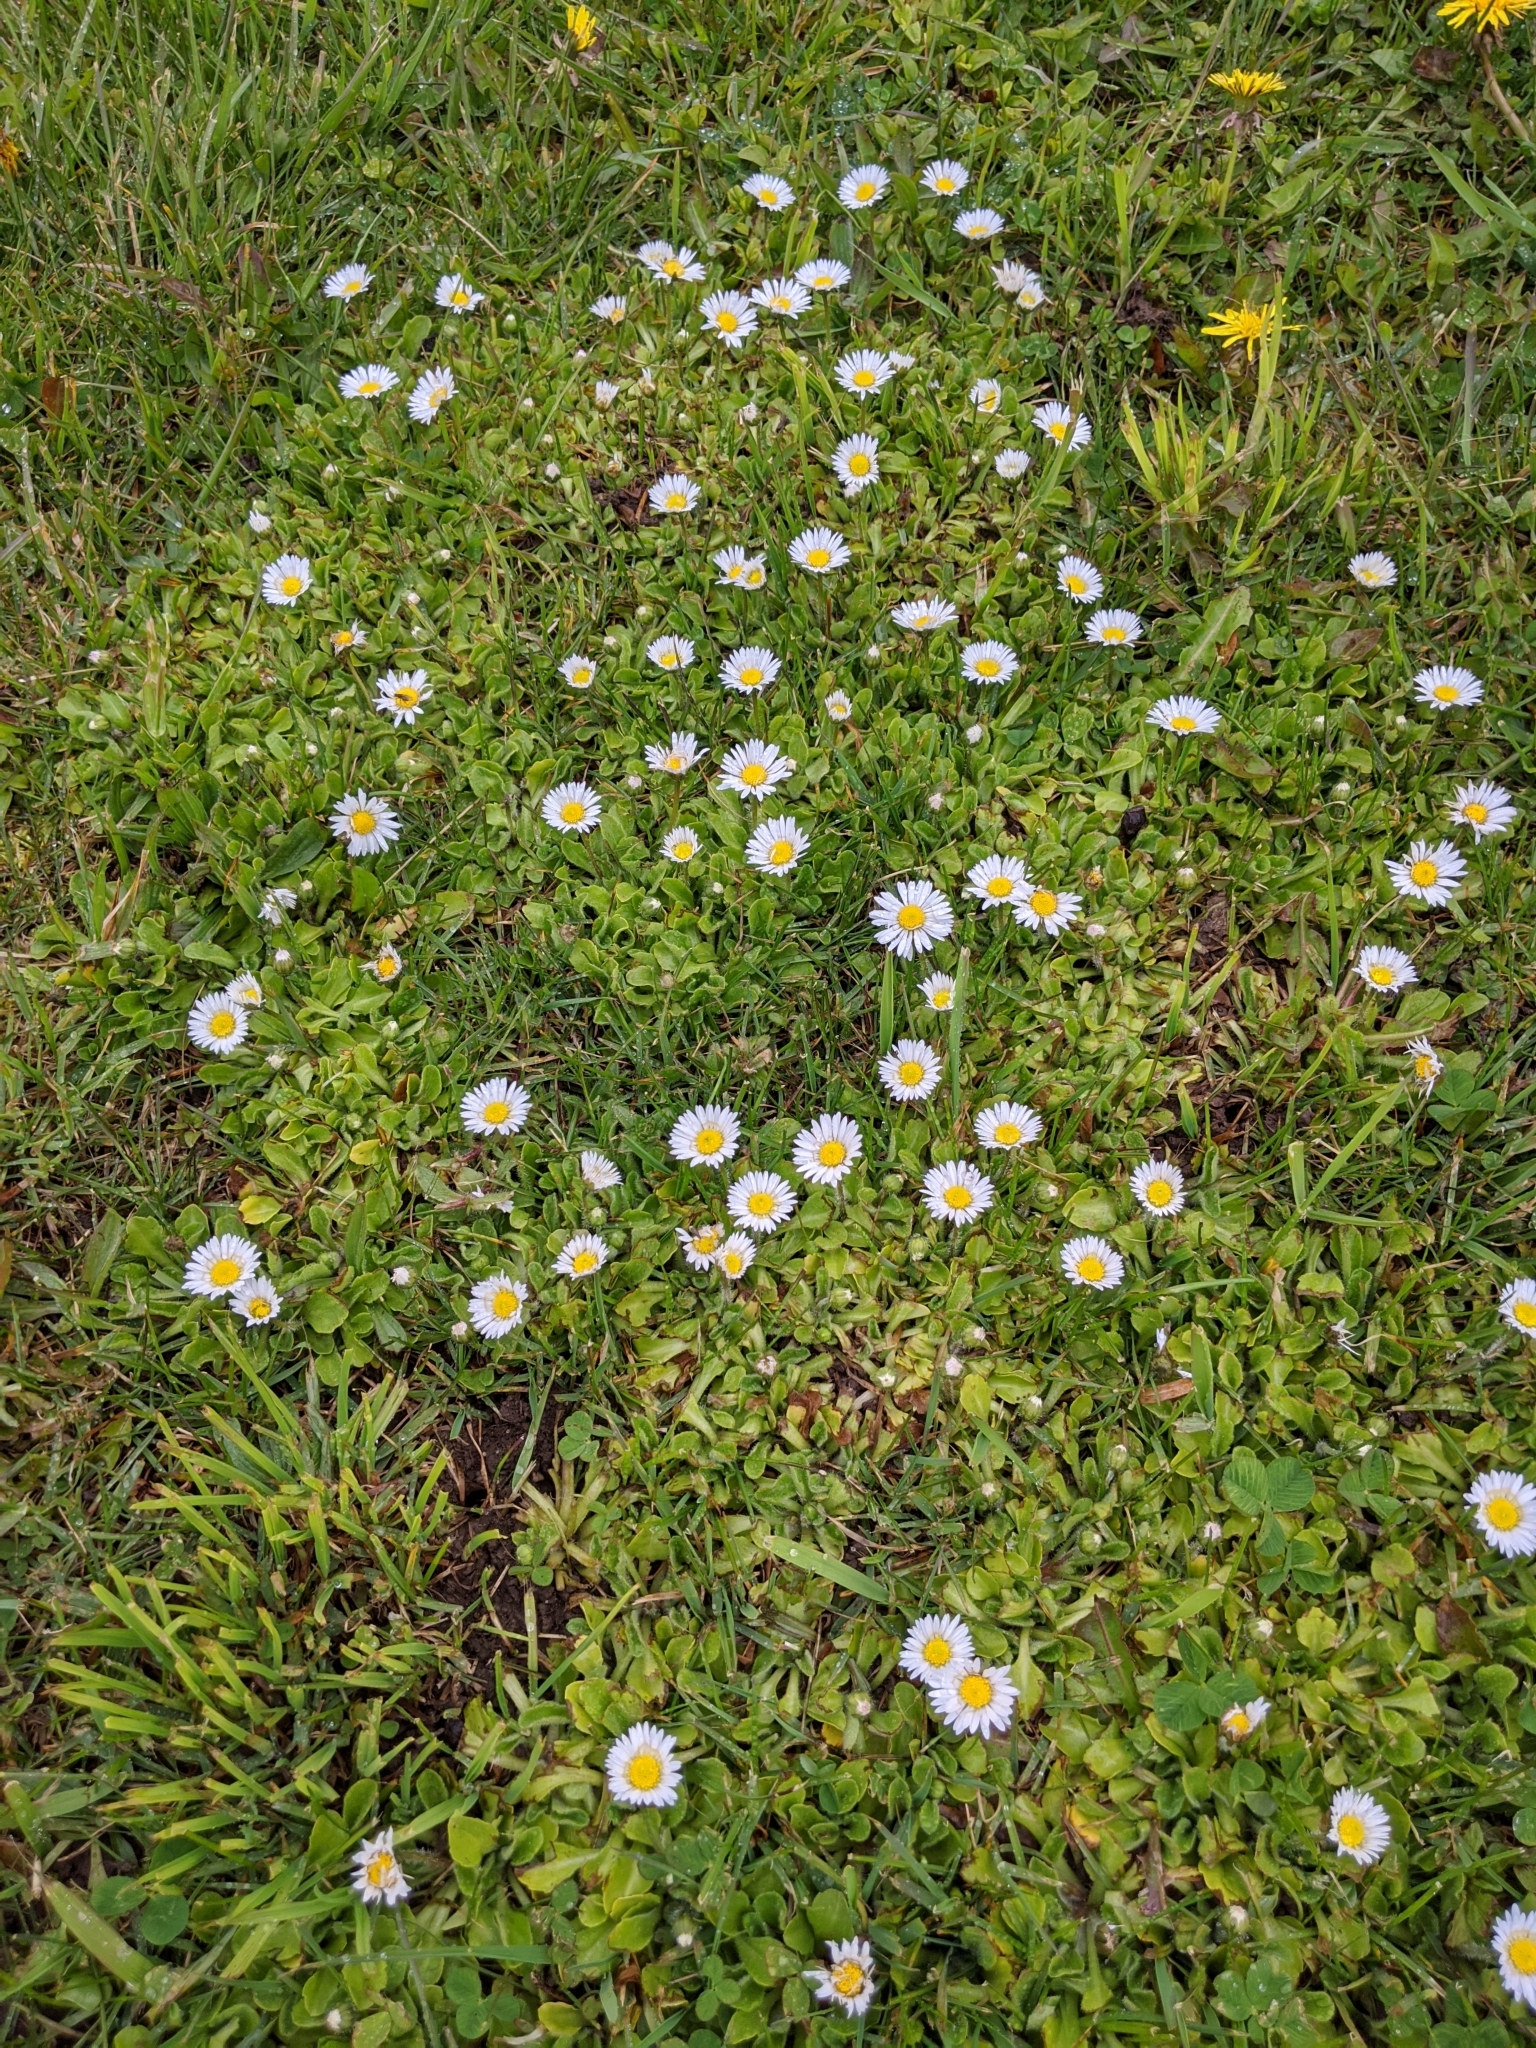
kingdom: Plantae
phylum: Tracheophyta
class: Magnoliopsida
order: Asterales
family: Asteraceae
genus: Bellis
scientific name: Bellis perennis
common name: Lawndaisy
